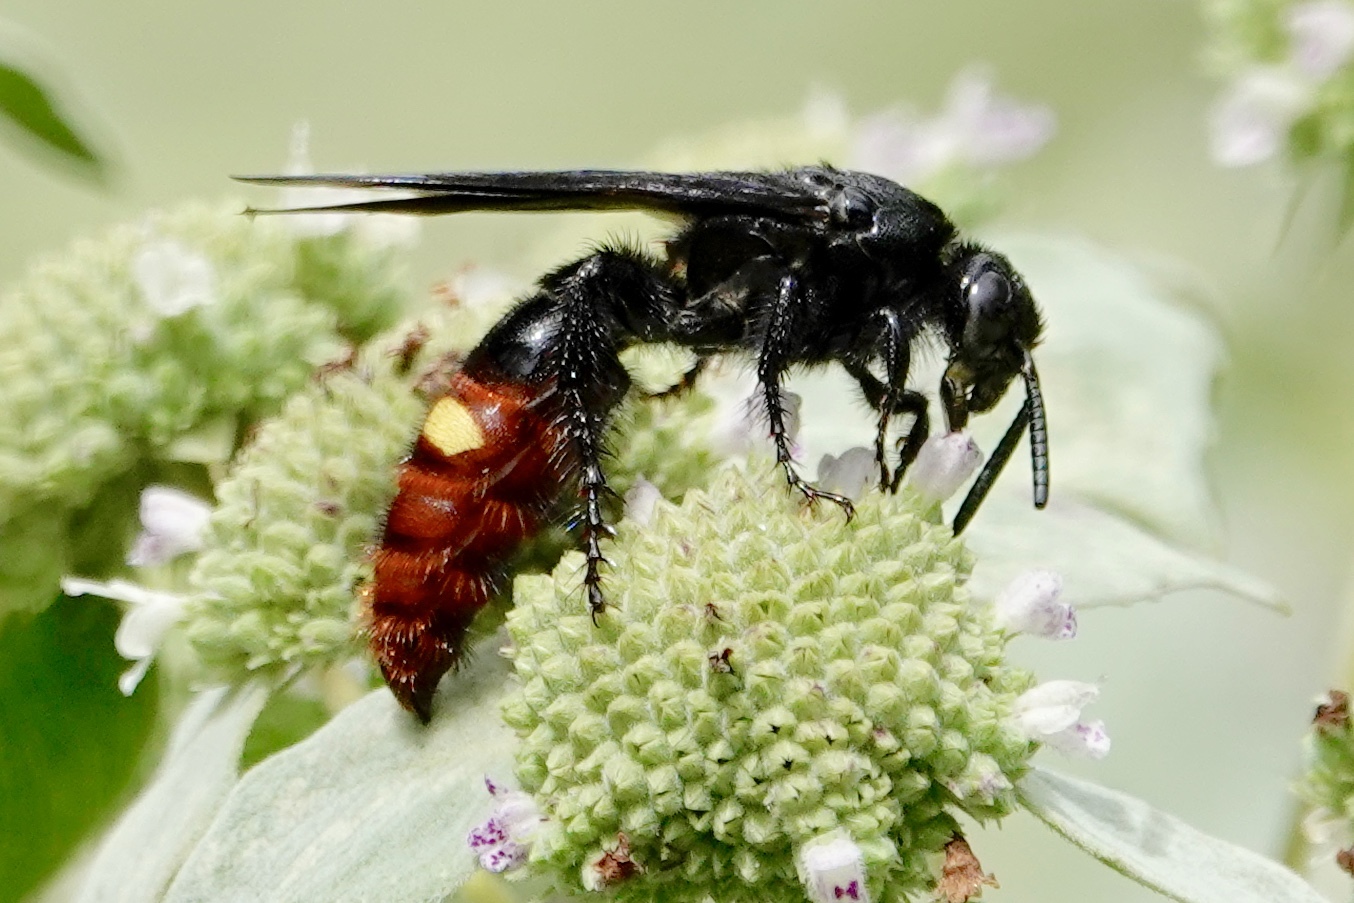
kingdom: Animalia
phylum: Arthropoda
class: Insecta
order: Hymenoptera
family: Scoliidae
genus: Scolia
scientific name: Scolia dubia
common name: Blue-winged scoliid wasp
